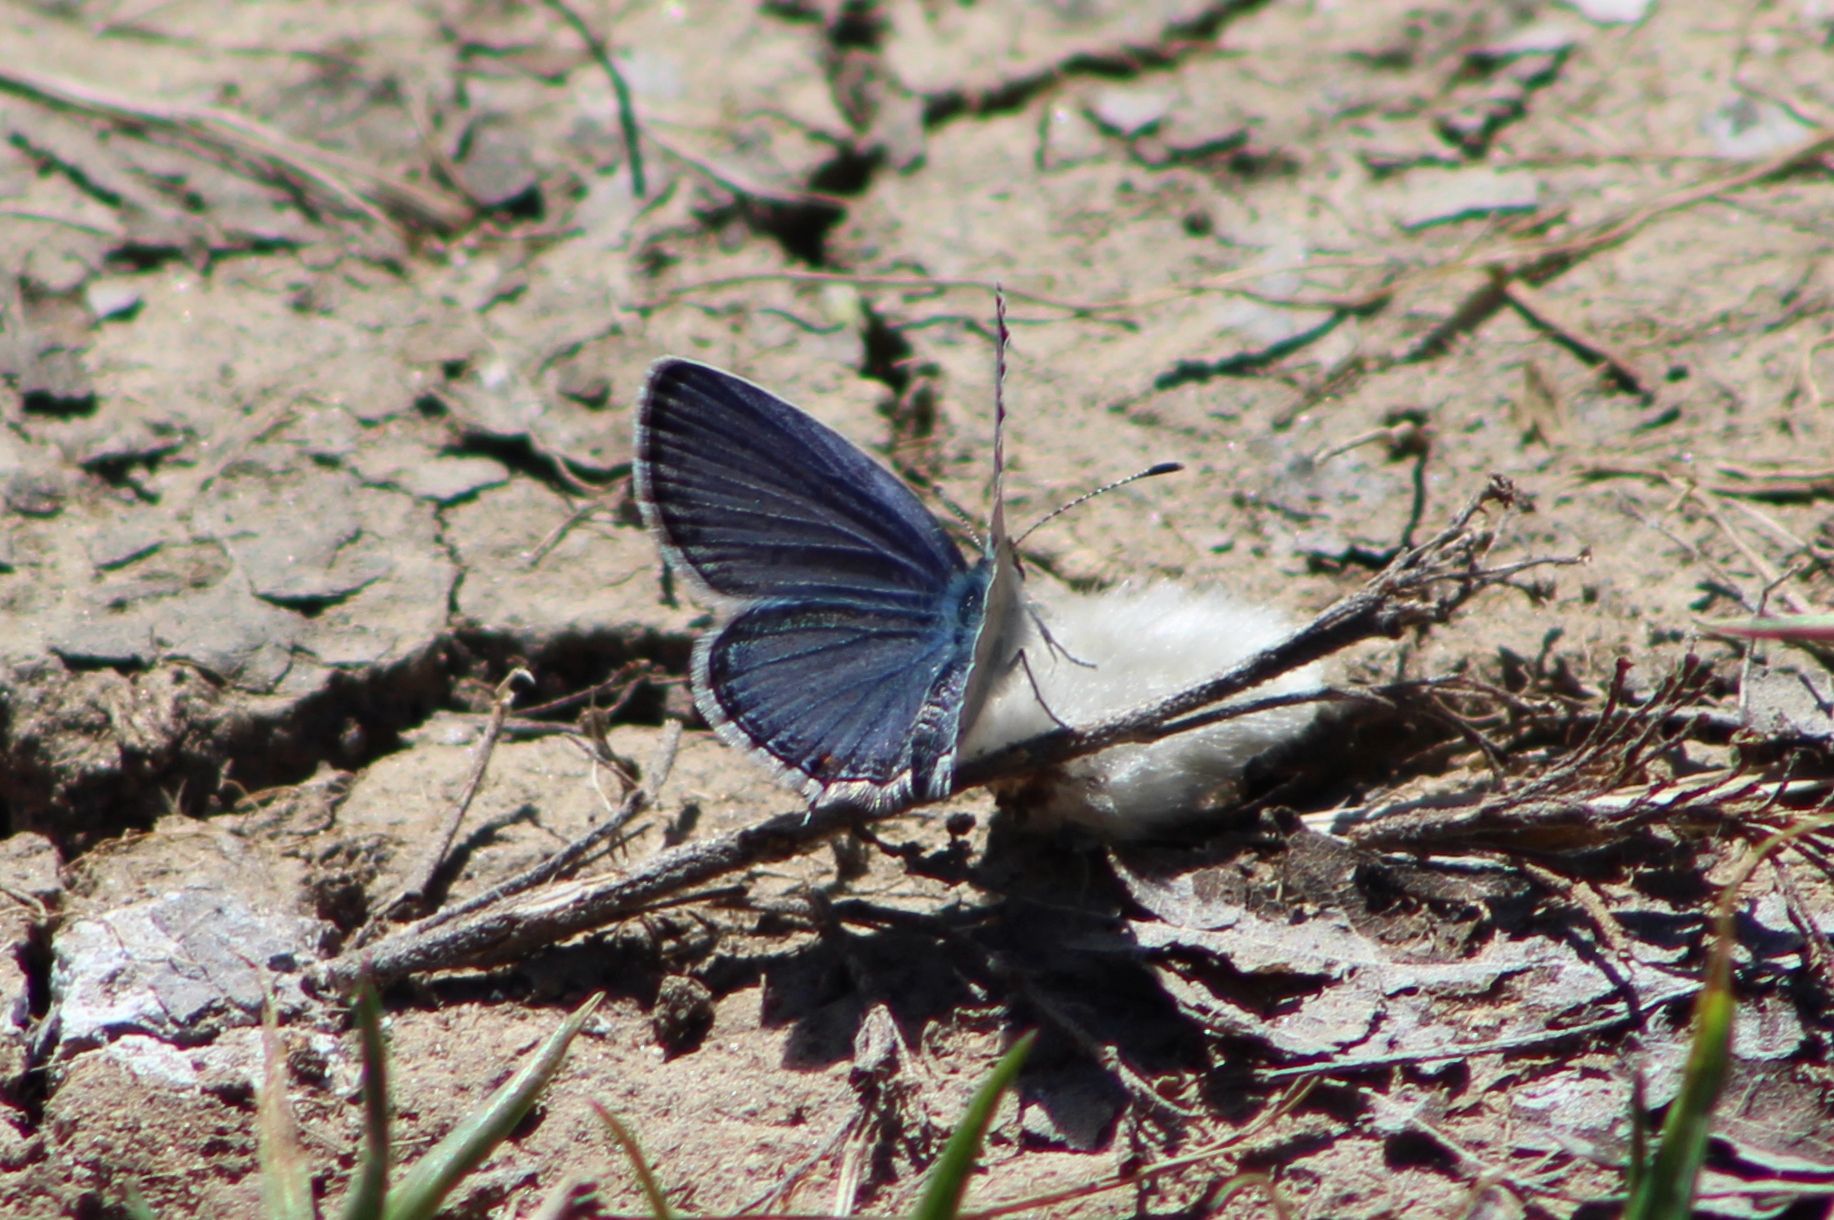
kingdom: Animalia
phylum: Arthropoda
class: Insecta
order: Lepidoptera
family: Lycaenidae
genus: Elkalyce
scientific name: Elkalyce comyntas
